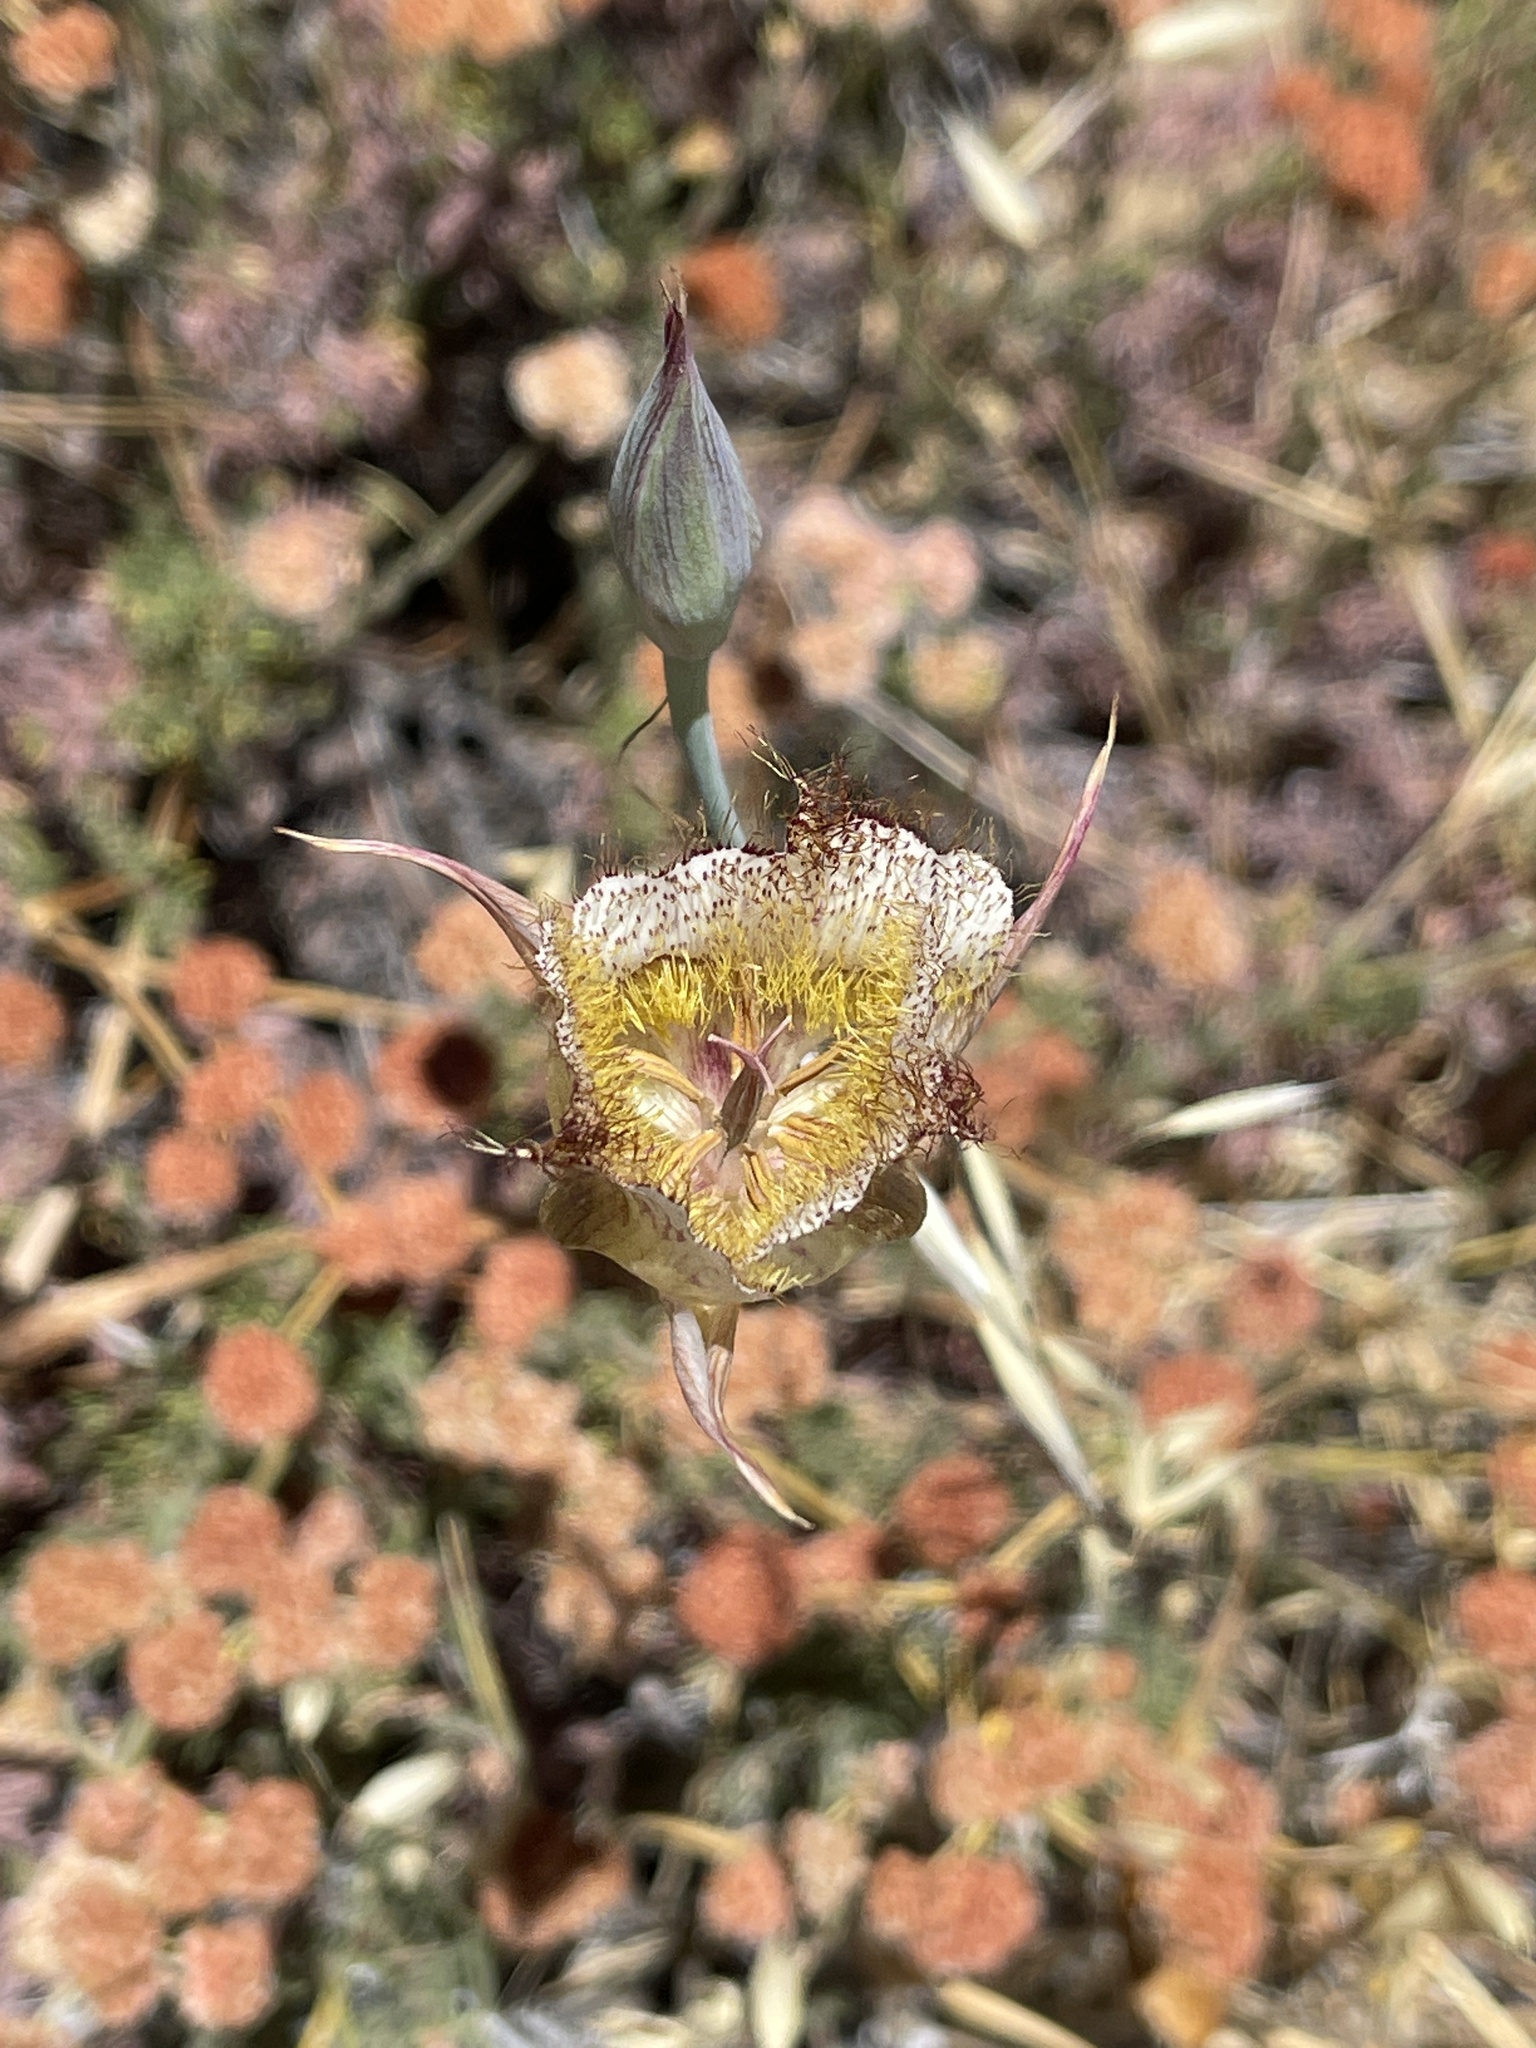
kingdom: Plantae
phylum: Tracheophyta
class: Liliopsida
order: Liliales
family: Liliaceae
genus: Calochortus
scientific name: Calochortus fimbriatus
